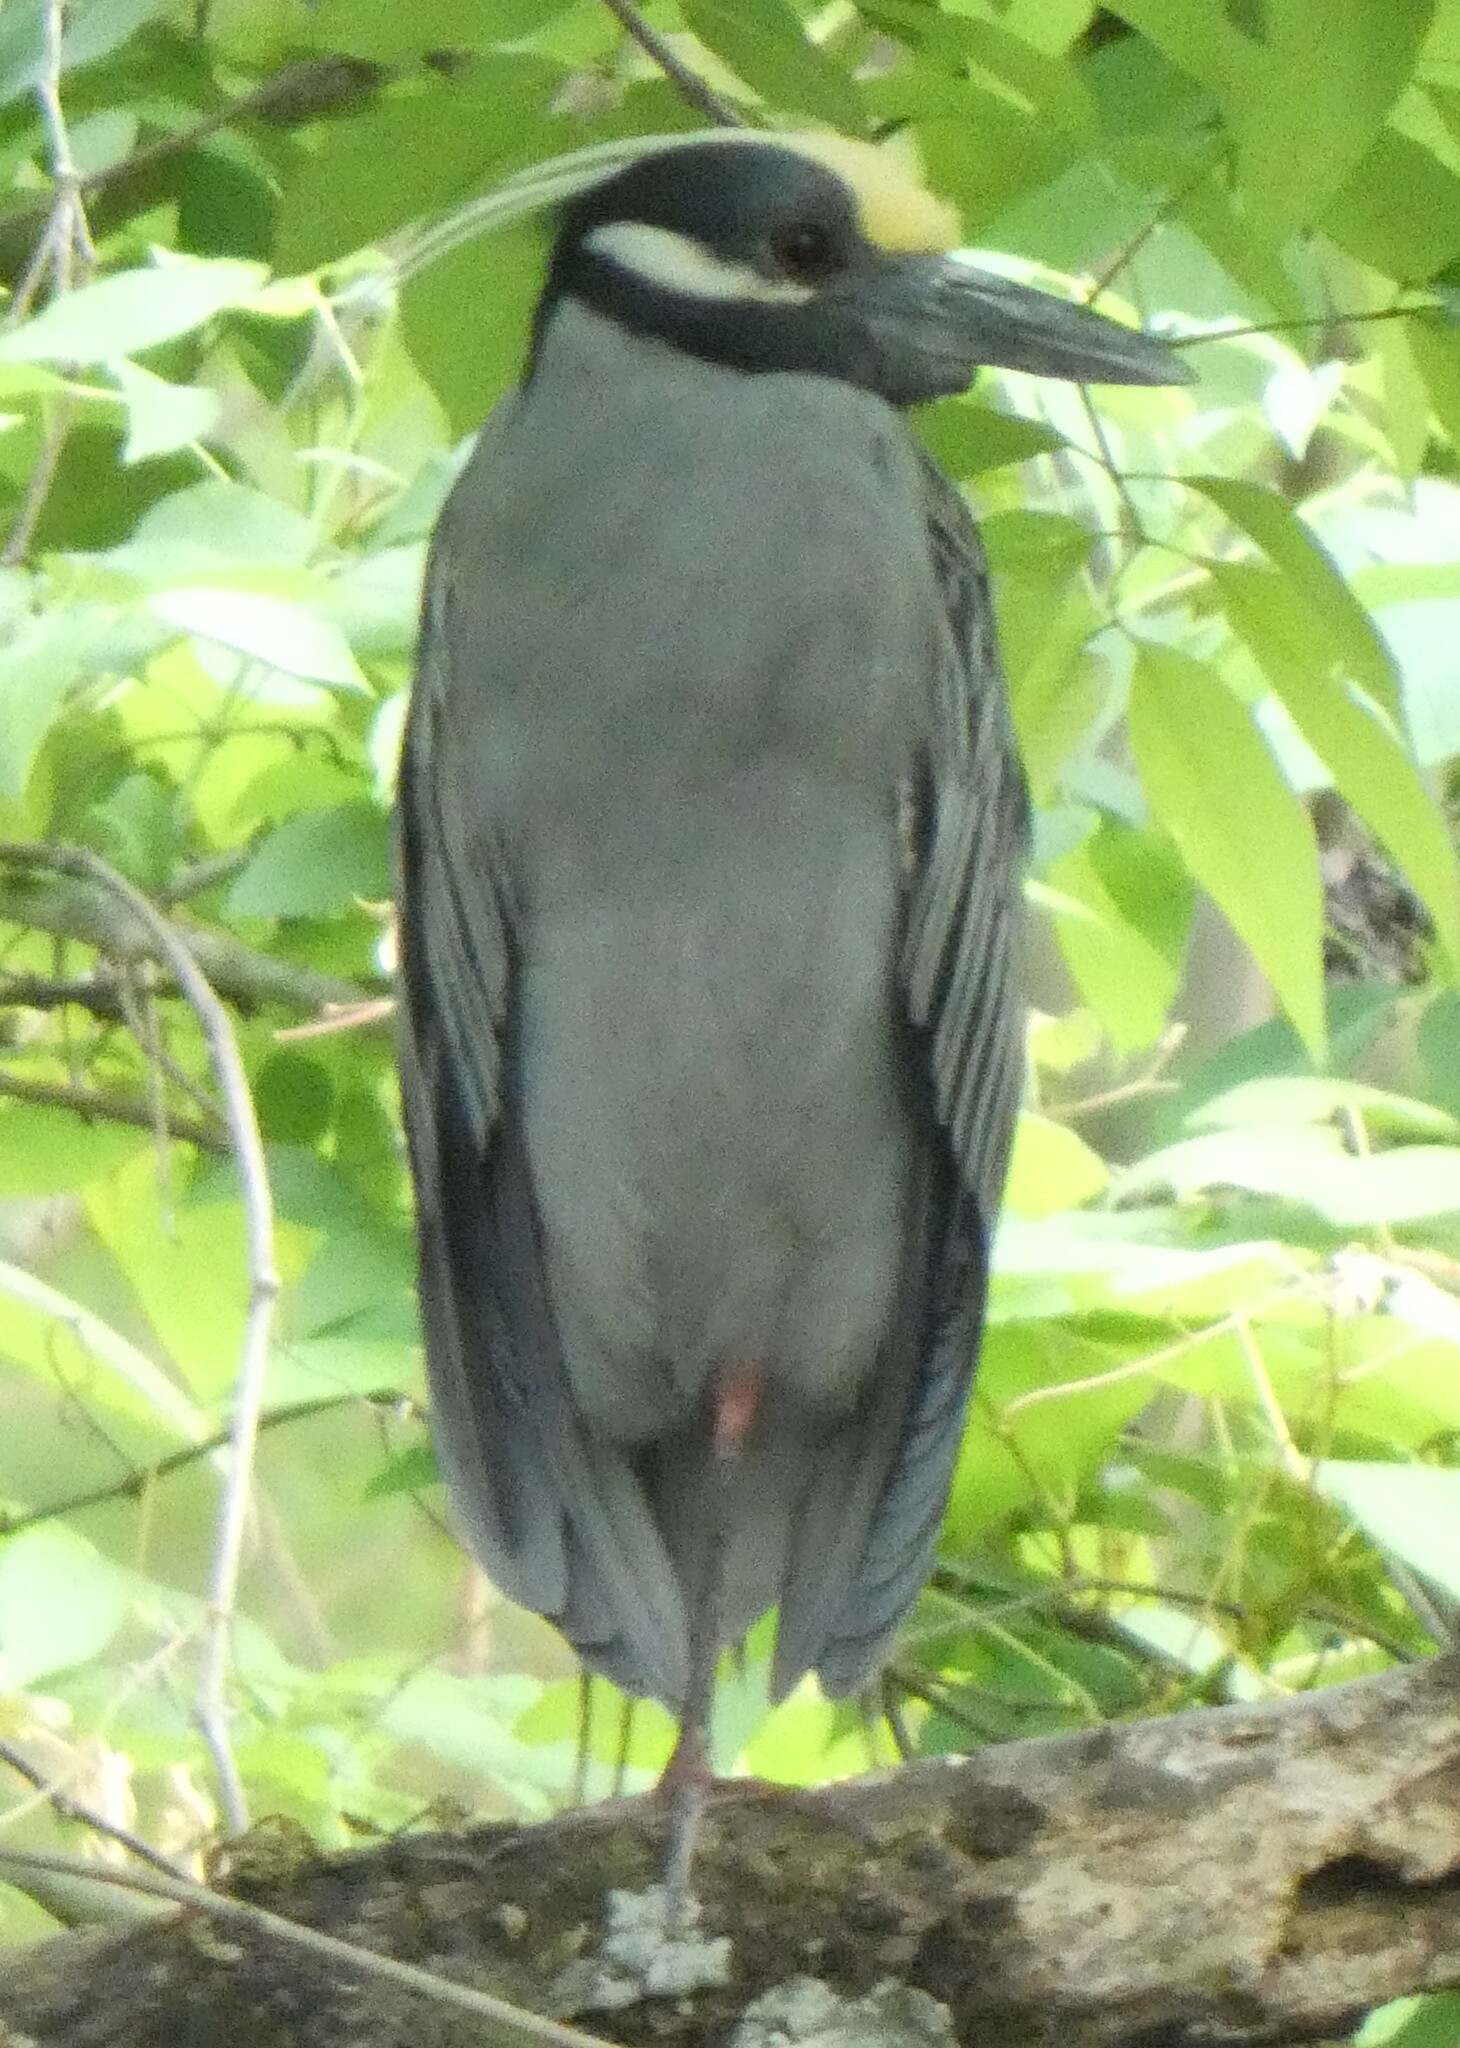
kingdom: Animalia
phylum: Chordata
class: Aves
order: Pelecaniformes
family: Ardeidae
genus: Nyctanassa
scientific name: Nyctanassa violacea
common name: Yellow-crowned night heron
